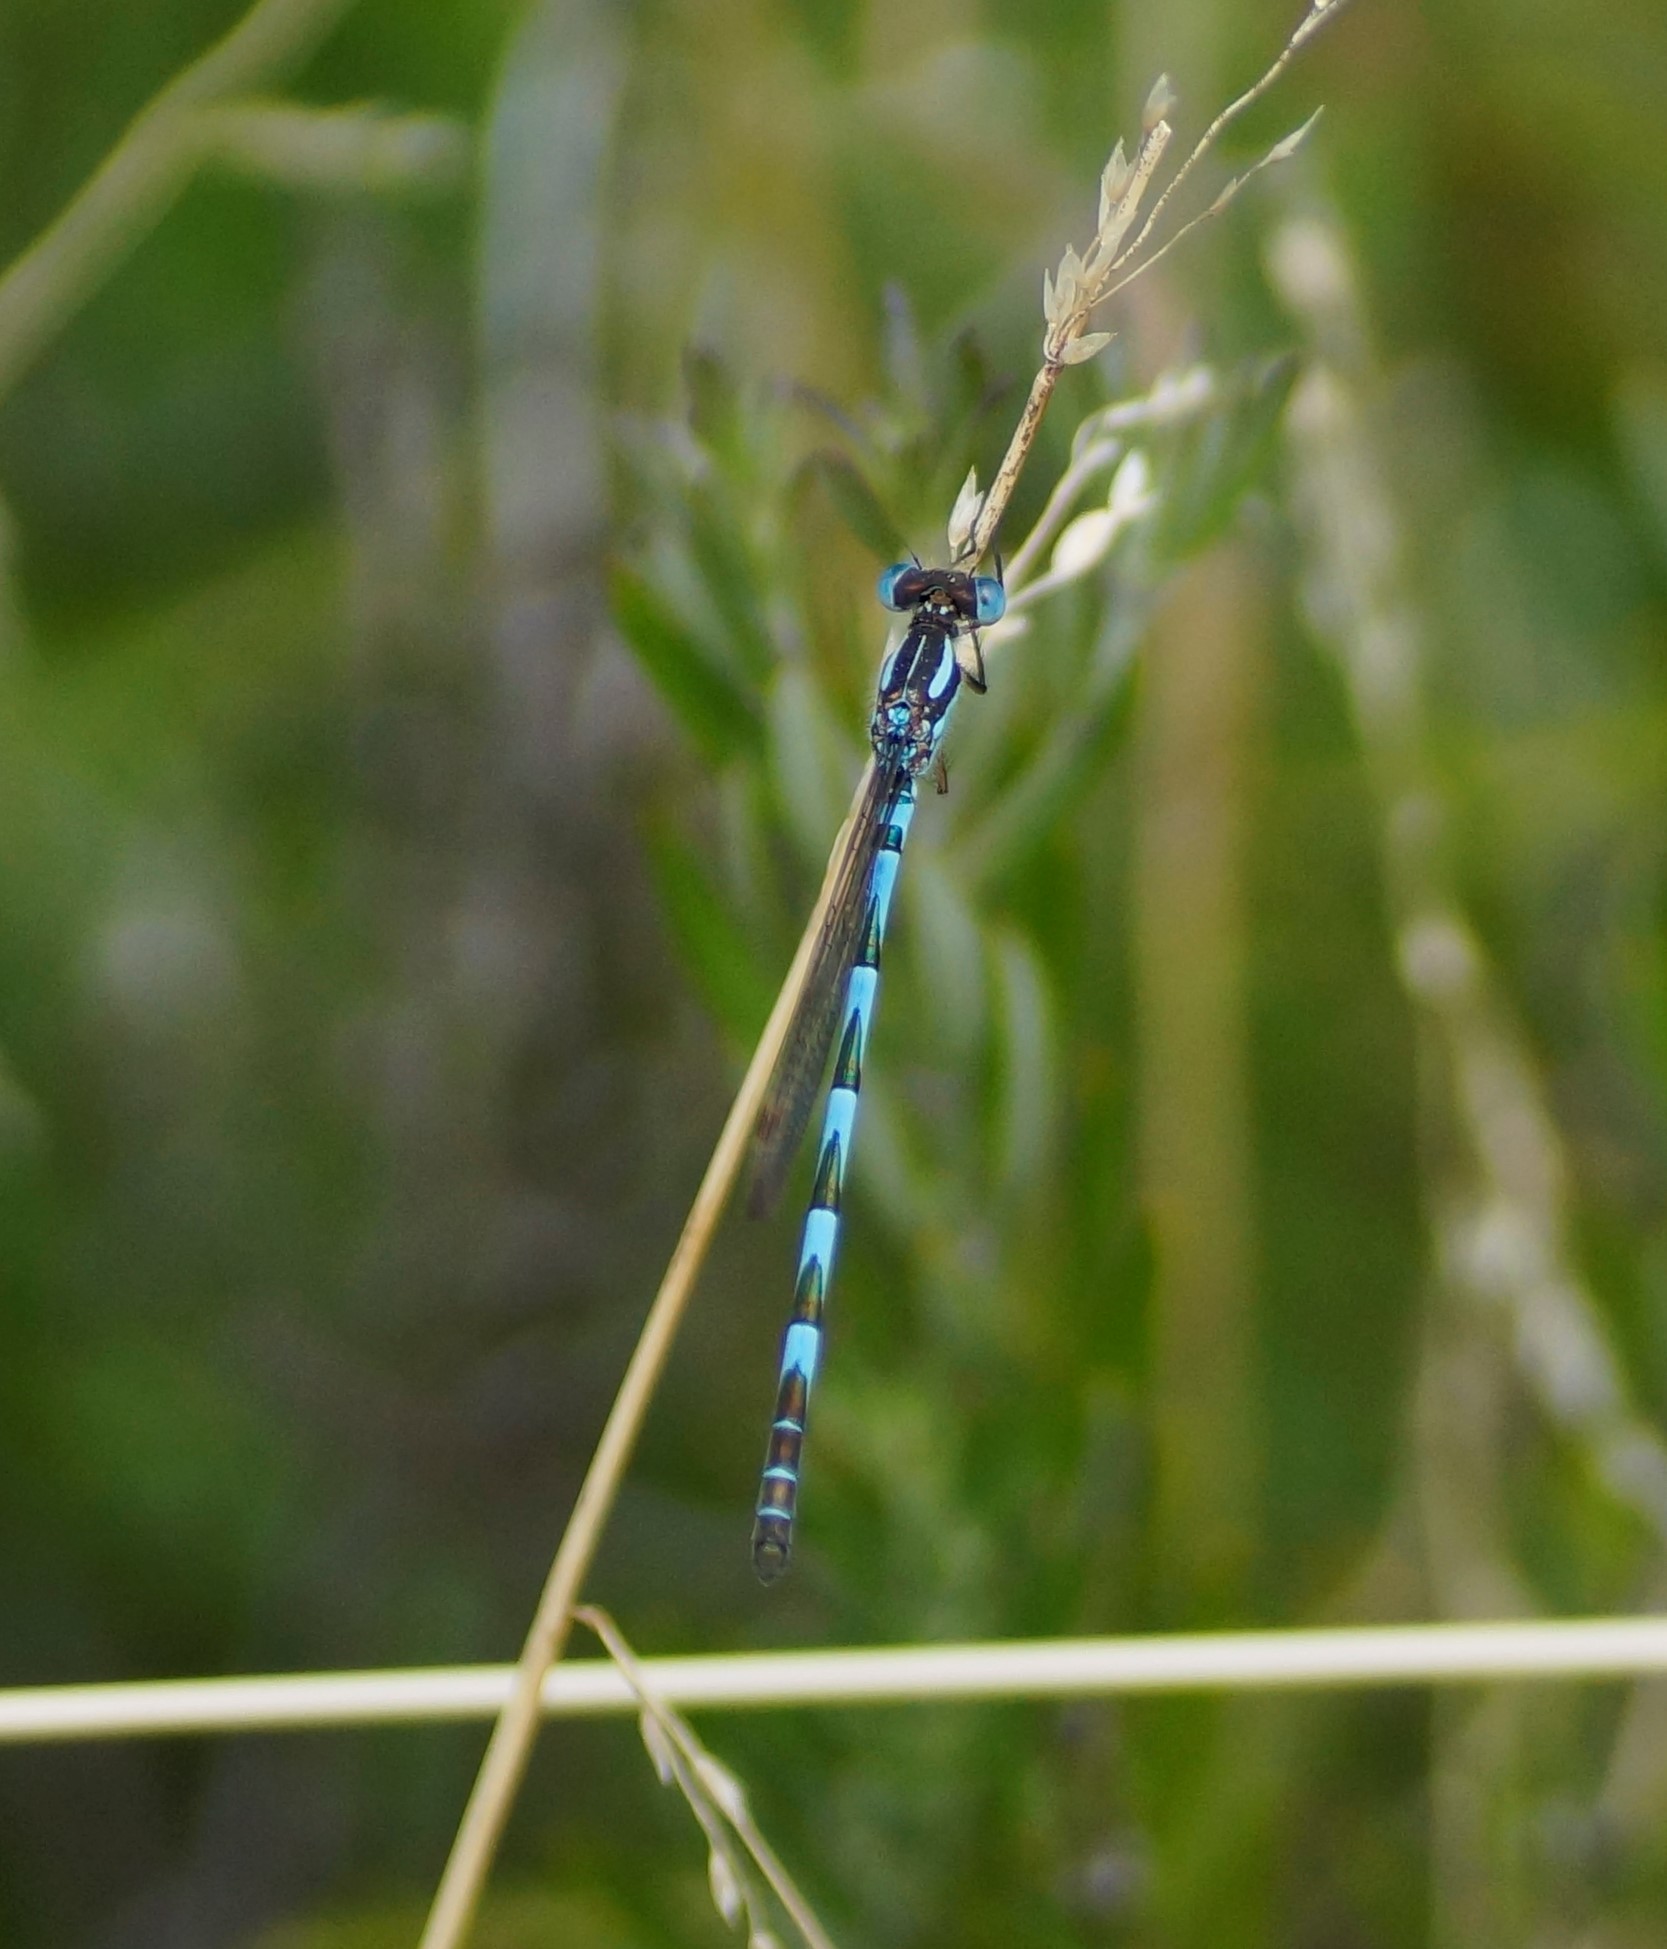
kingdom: Animalia
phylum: Arthropoda
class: Insecta
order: Odonata
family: Lestidae
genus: Austrolestes
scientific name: Austrolestes annulosus
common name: Blue ringtail
